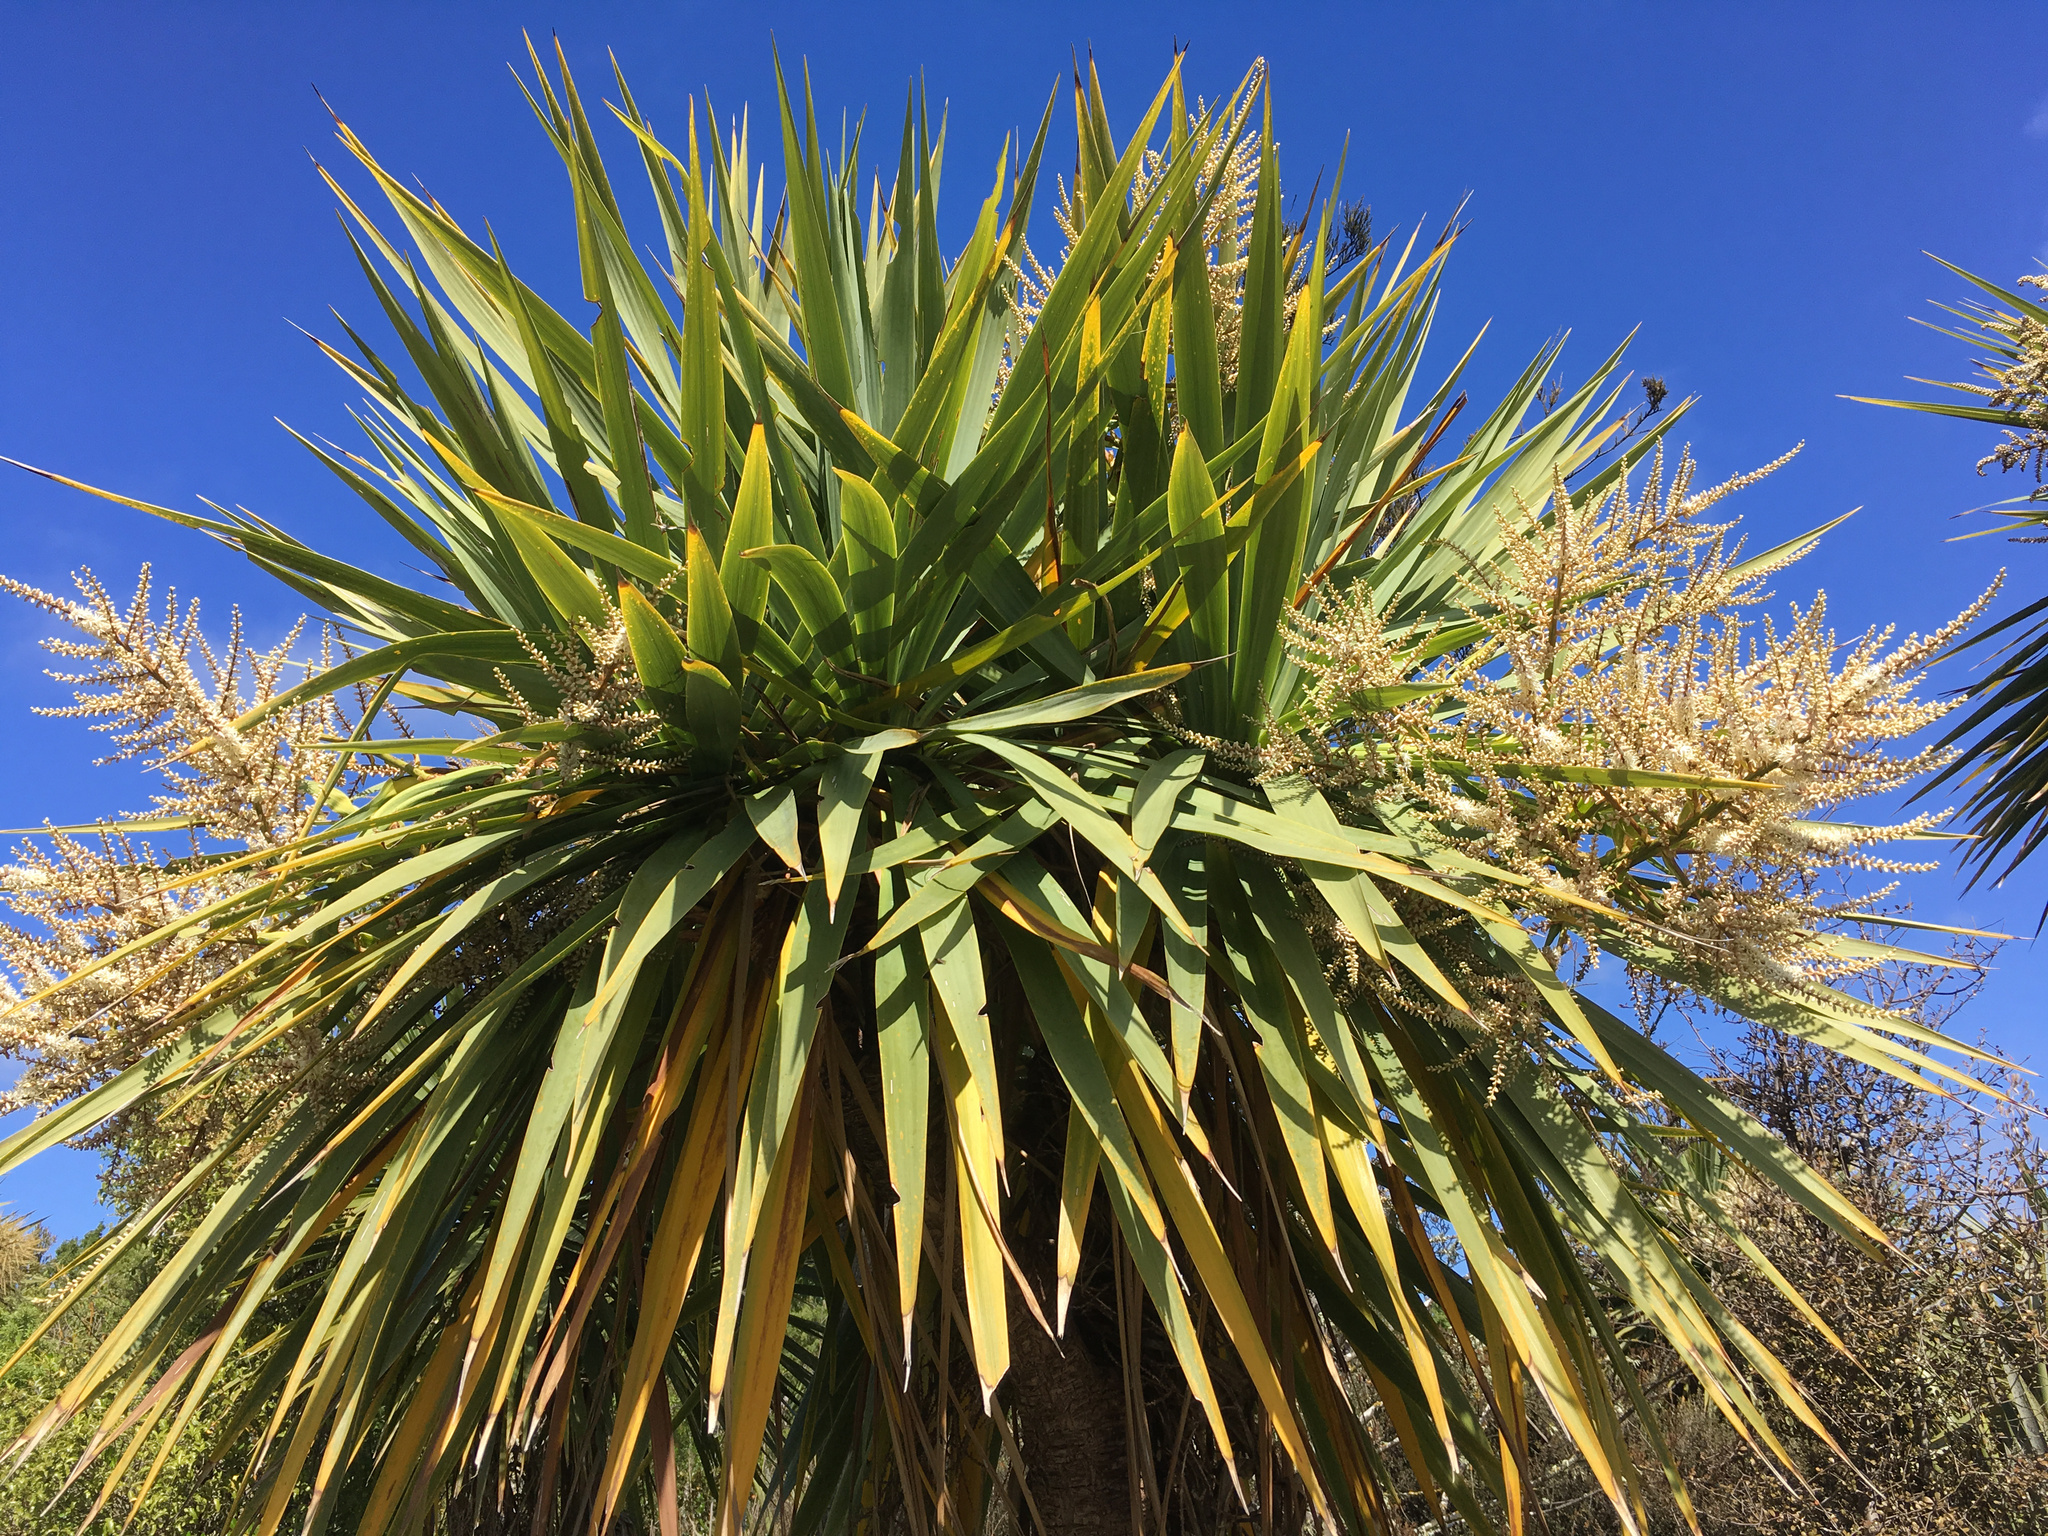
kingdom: Plantae
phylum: Tracheophyta
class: Liliopsida
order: Asparagales
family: Asparagaceae
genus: Cordyline
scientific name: Cordyline australis
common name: Cabbage-palm
